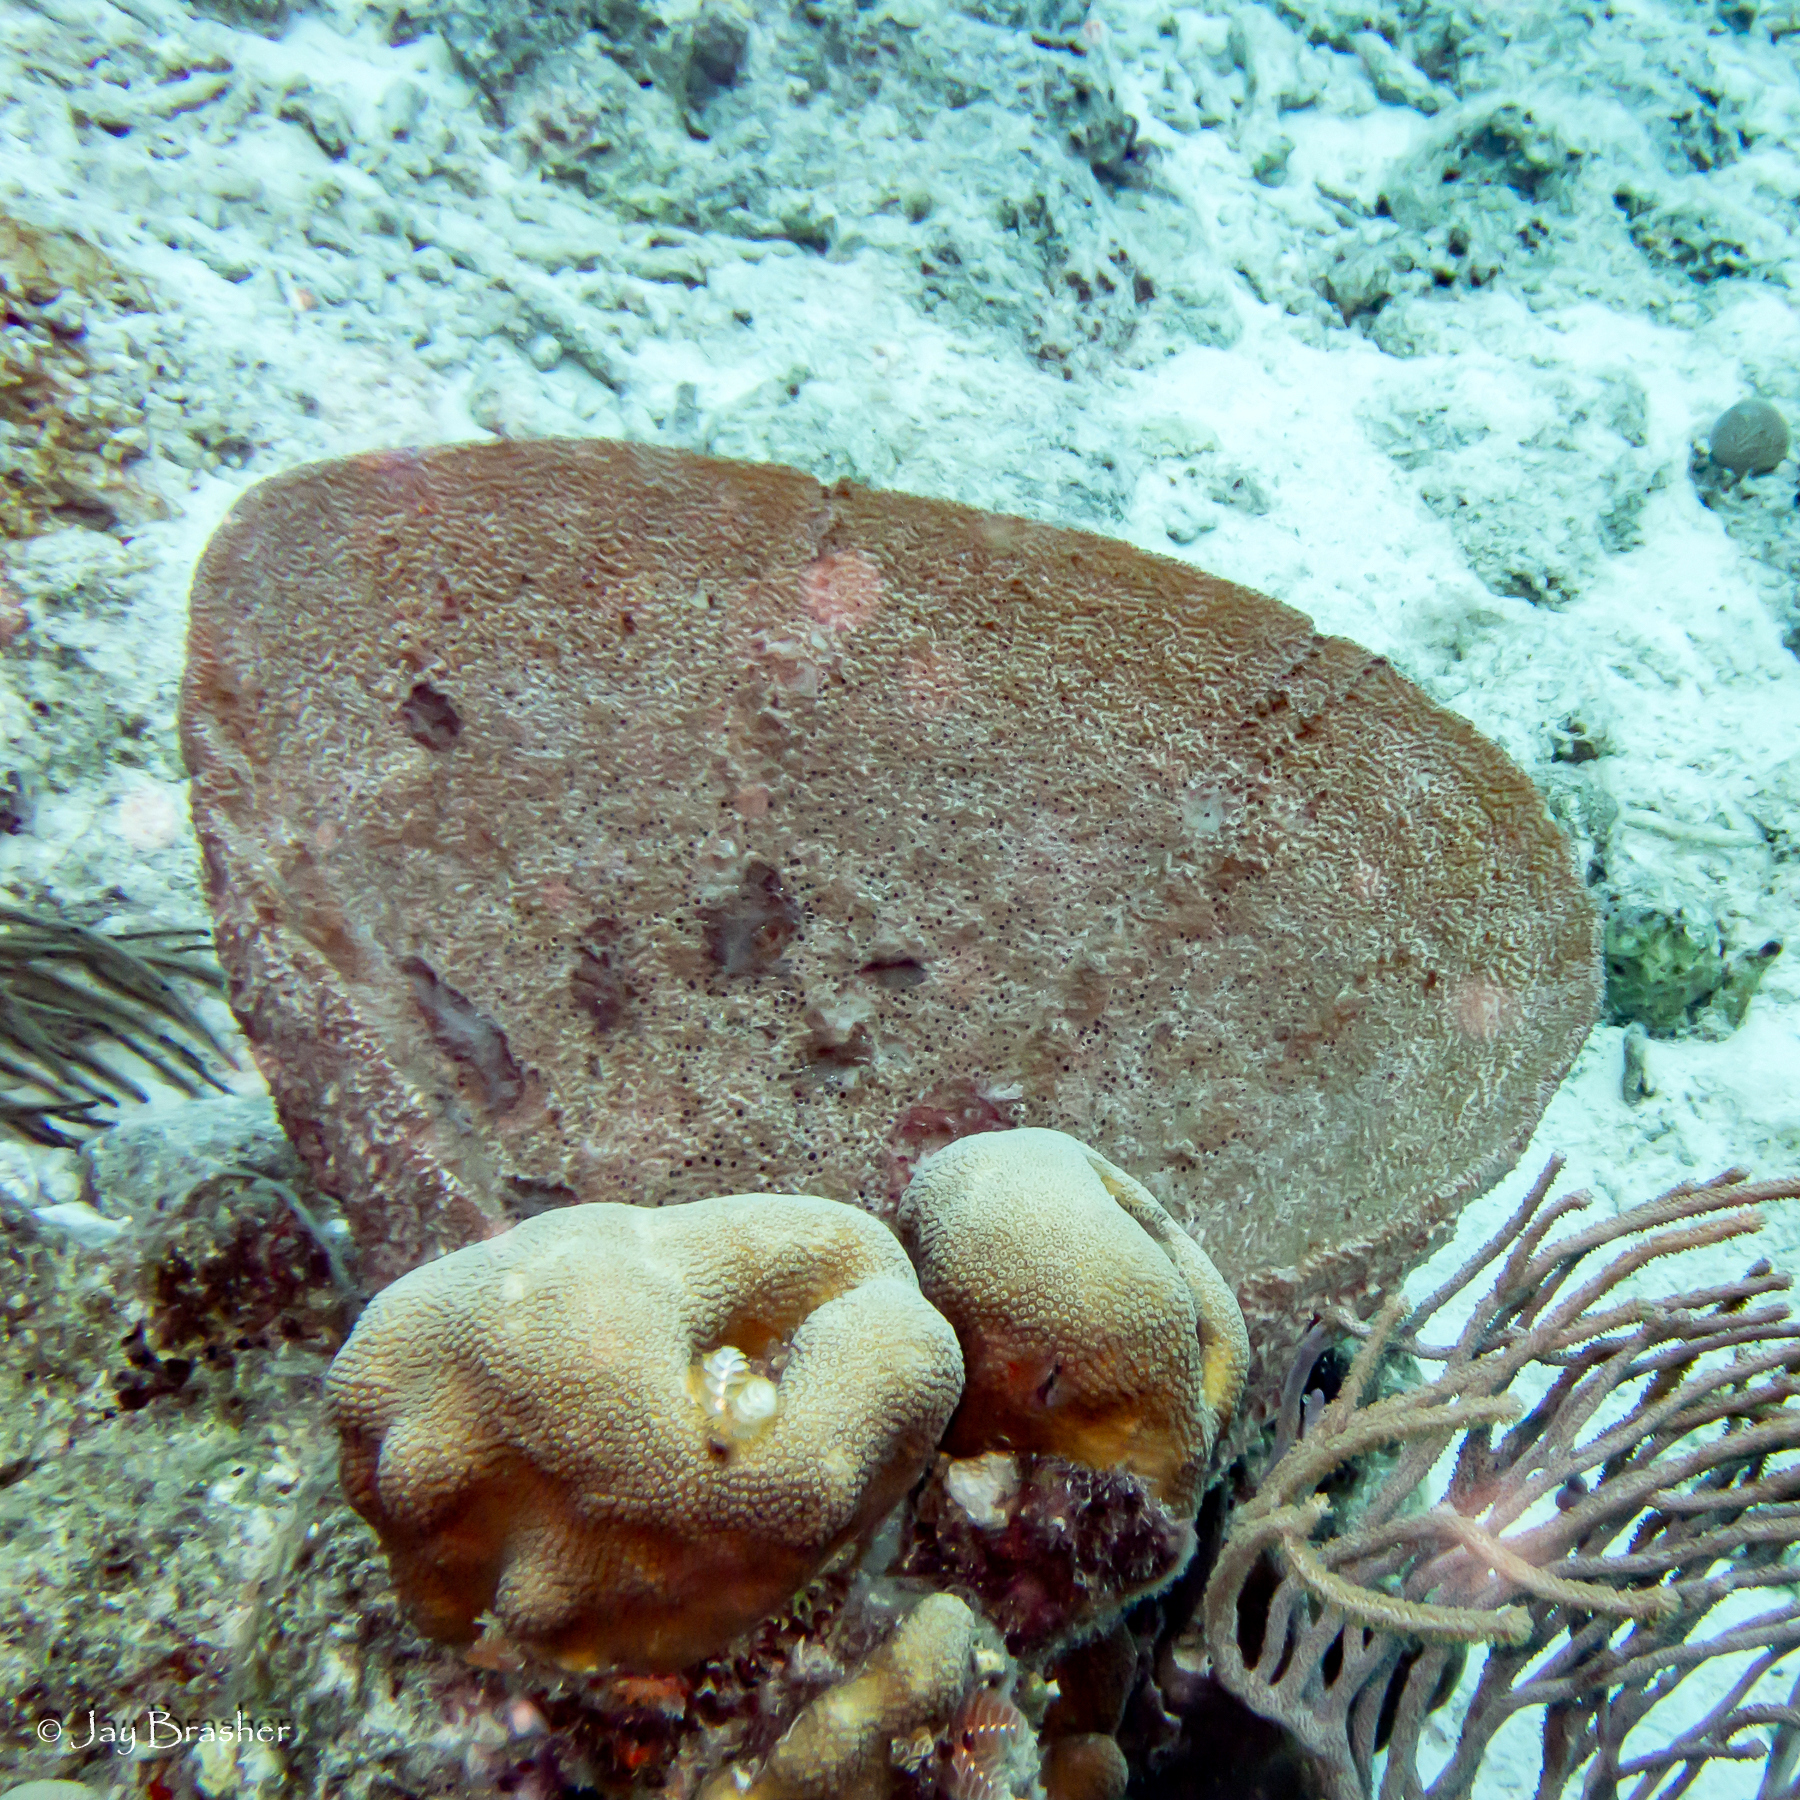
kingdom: Animalia
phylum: Porifera
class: Demospongiae
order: Dictyoceratida
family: Irciniidae
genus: Ircinia
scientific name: Ircinia campana
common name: Vase sponge
